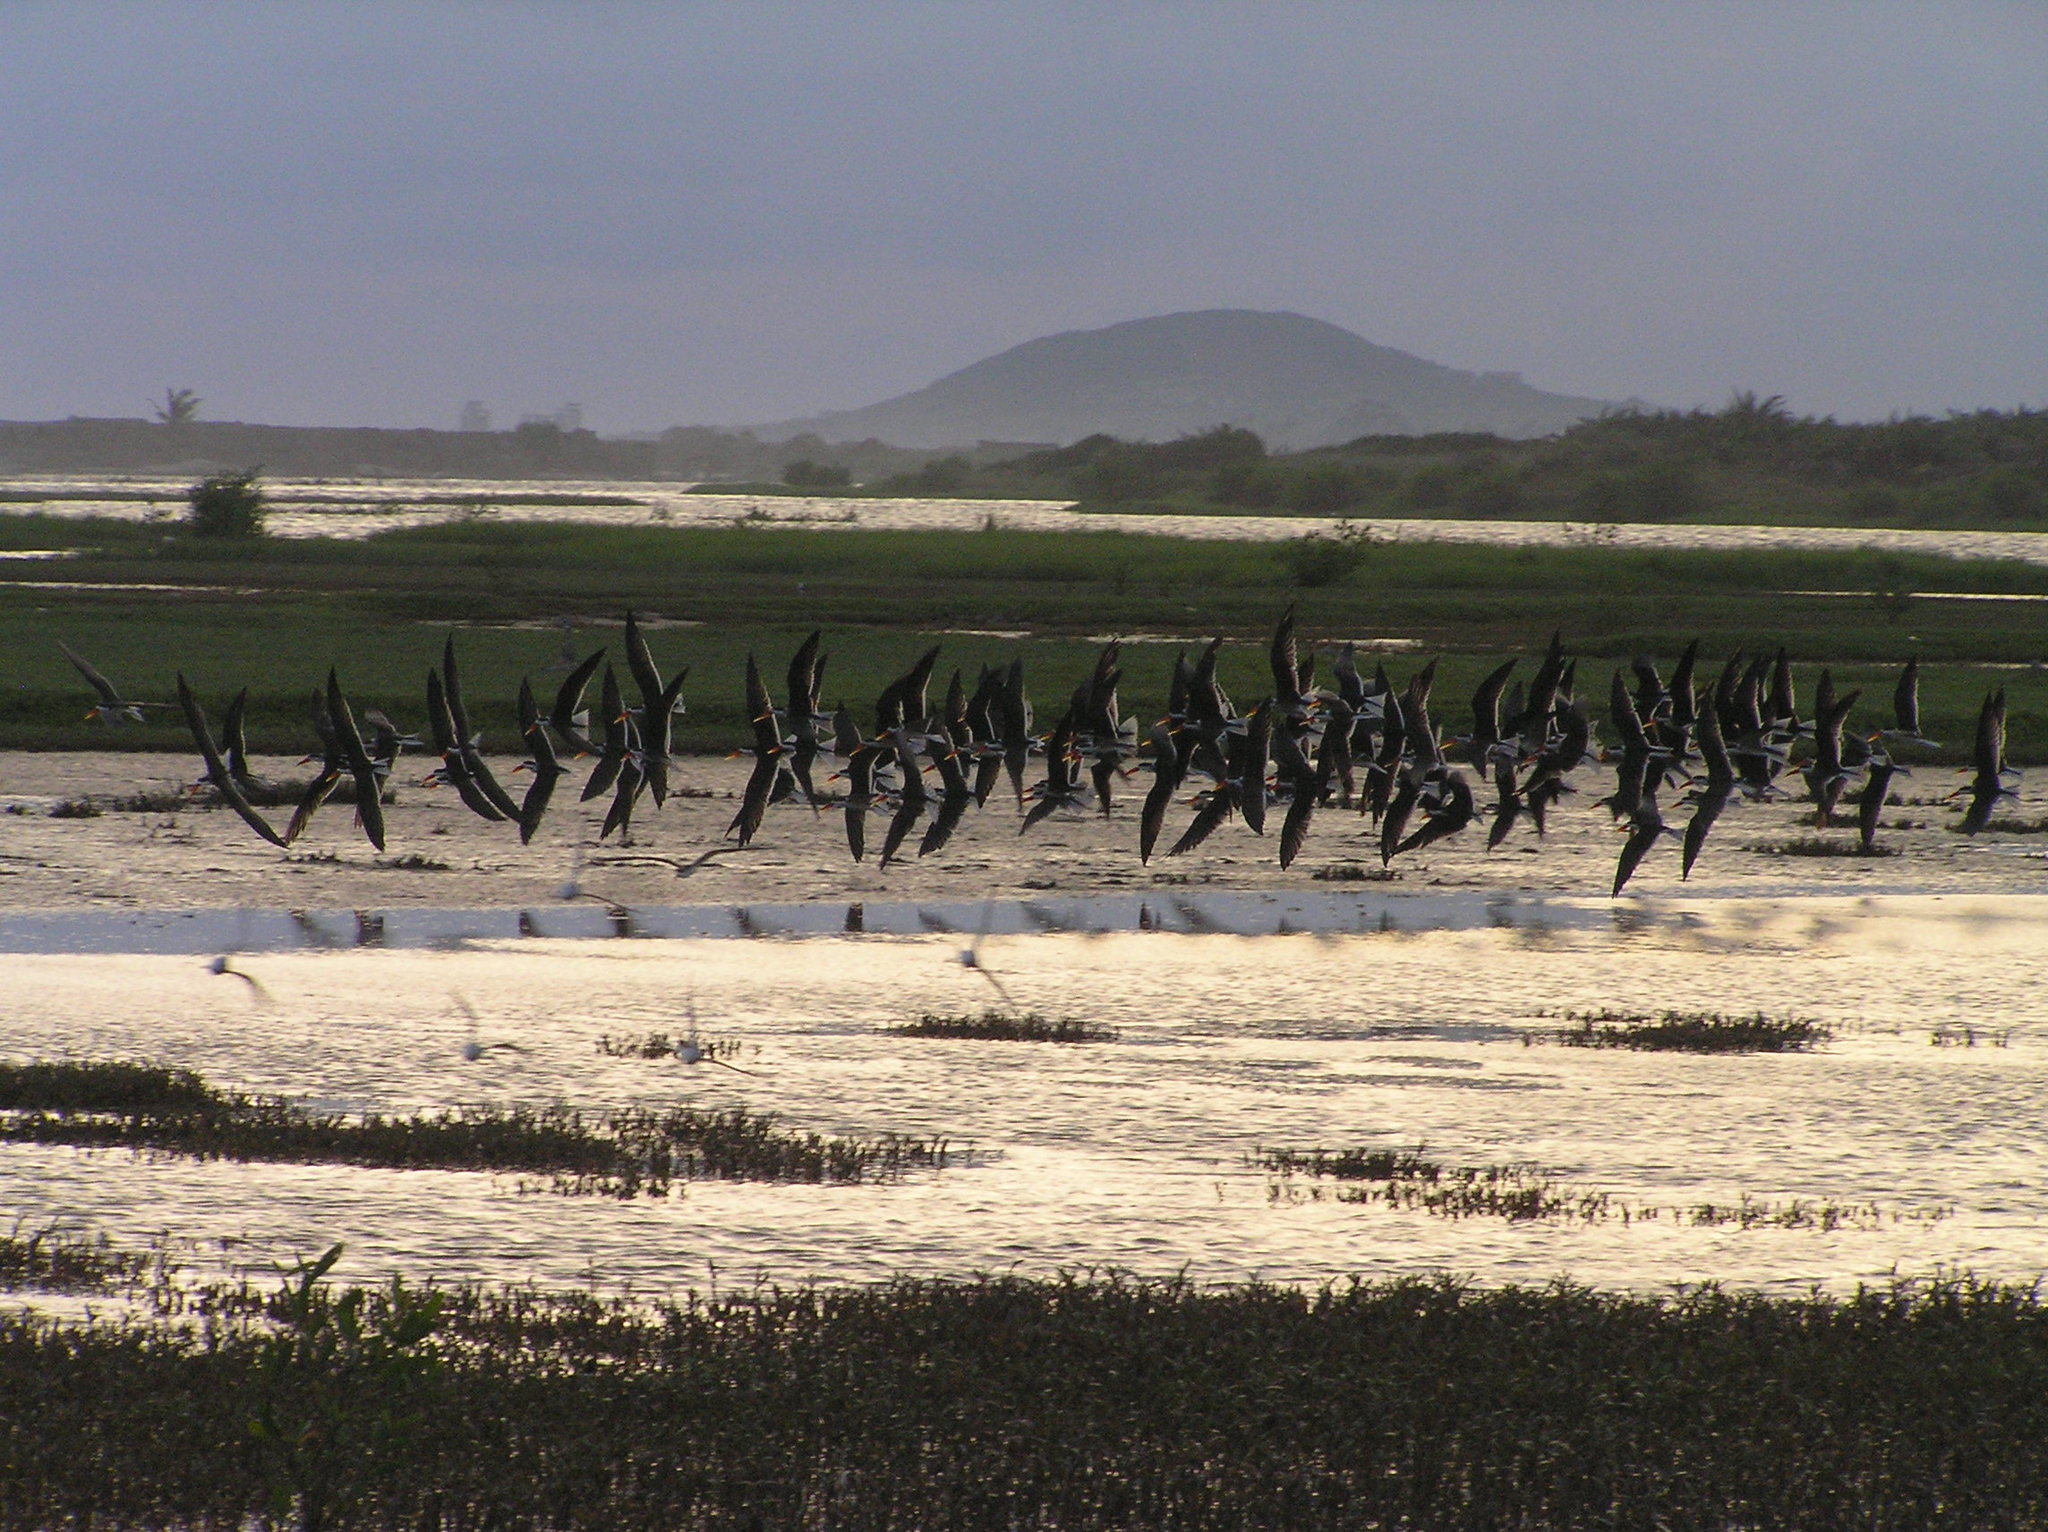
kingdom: Animalia
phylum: Chordata
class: Aves
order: Charadriiformes
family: Laridae
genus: Rynchops
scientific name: Rynchops flavirostris
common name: African skimmer
